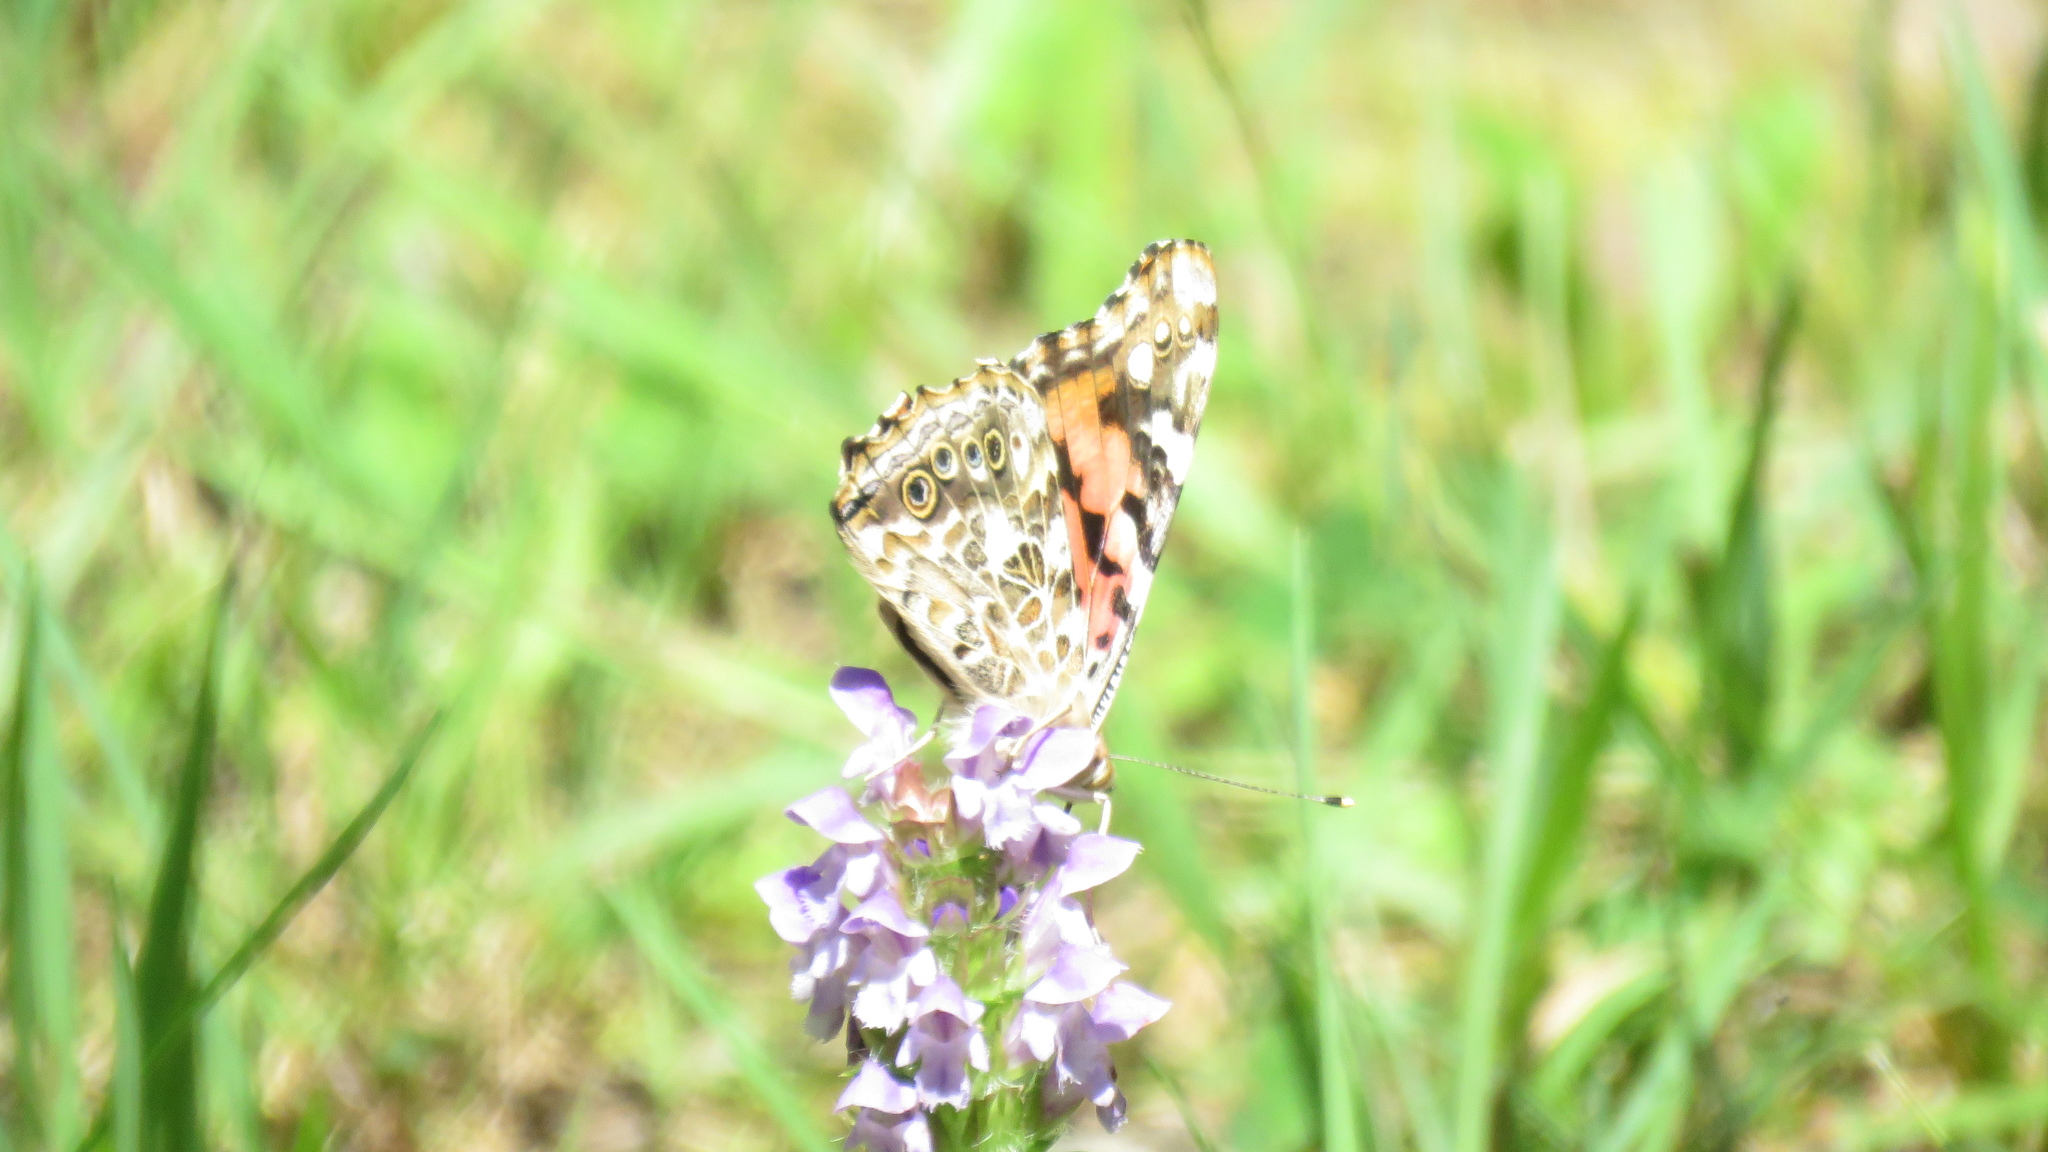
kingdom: Animalia
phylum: Arthropoda
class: Insecta
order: Lepidoptera
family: Nymphalidae
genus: Vanessa
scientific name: Vanessa cardui
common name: Painted lady
